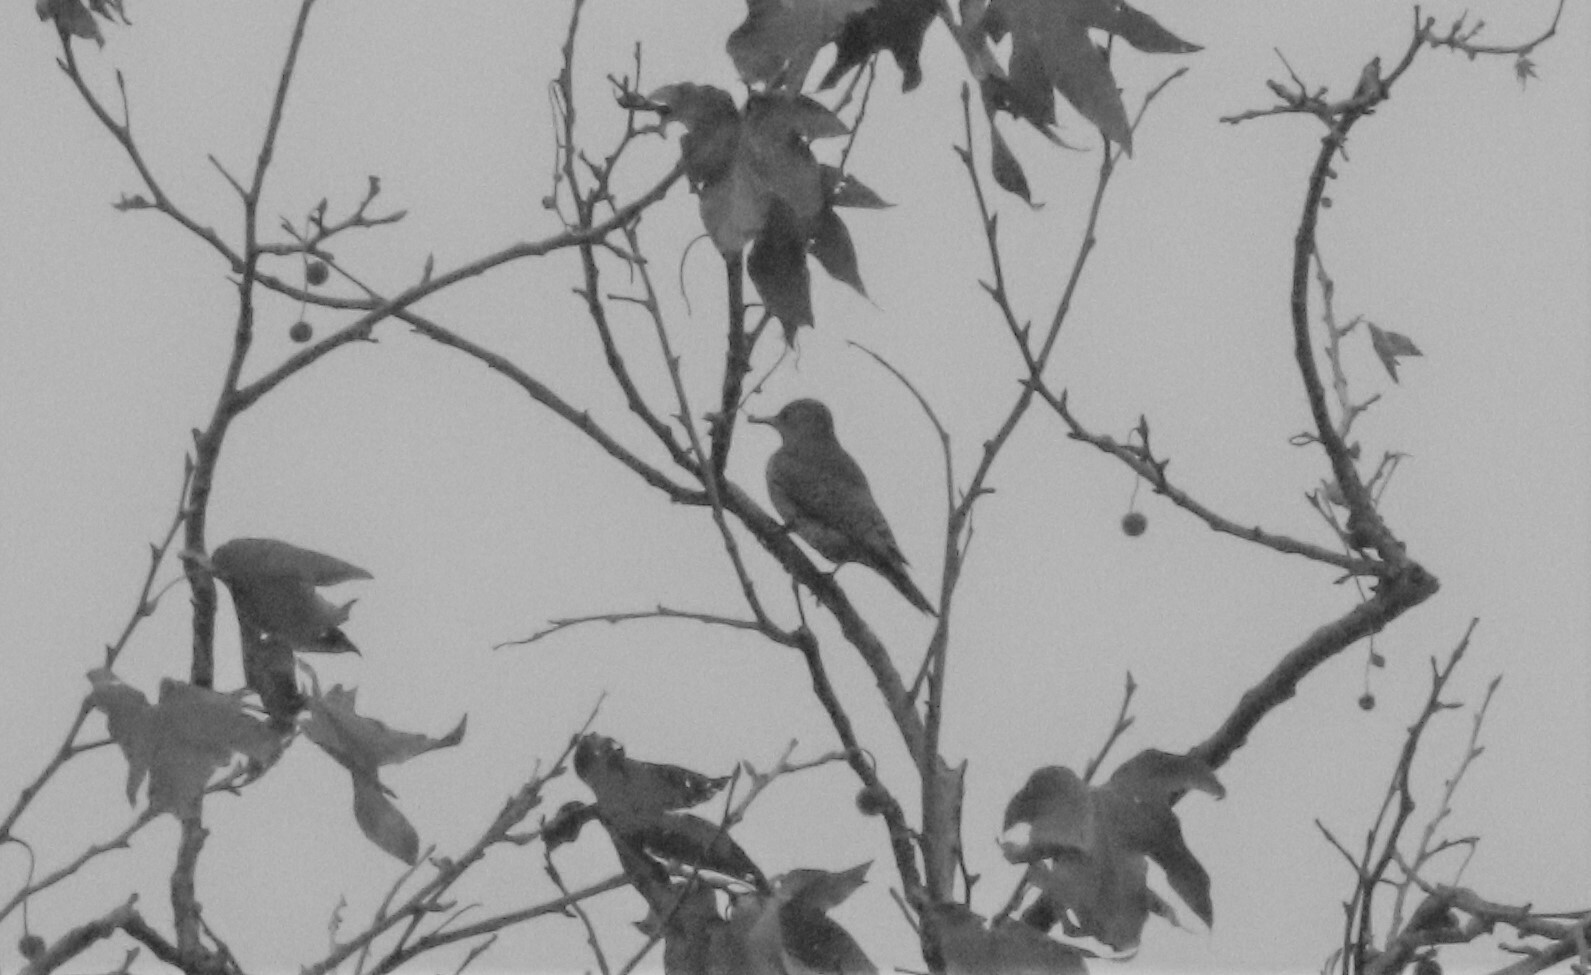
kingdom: Animalia
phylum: Chordata
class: Aves
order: Piciformes
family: Picidae
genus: Colaptes
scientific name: Colaptes auratus
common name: Northern flicker
